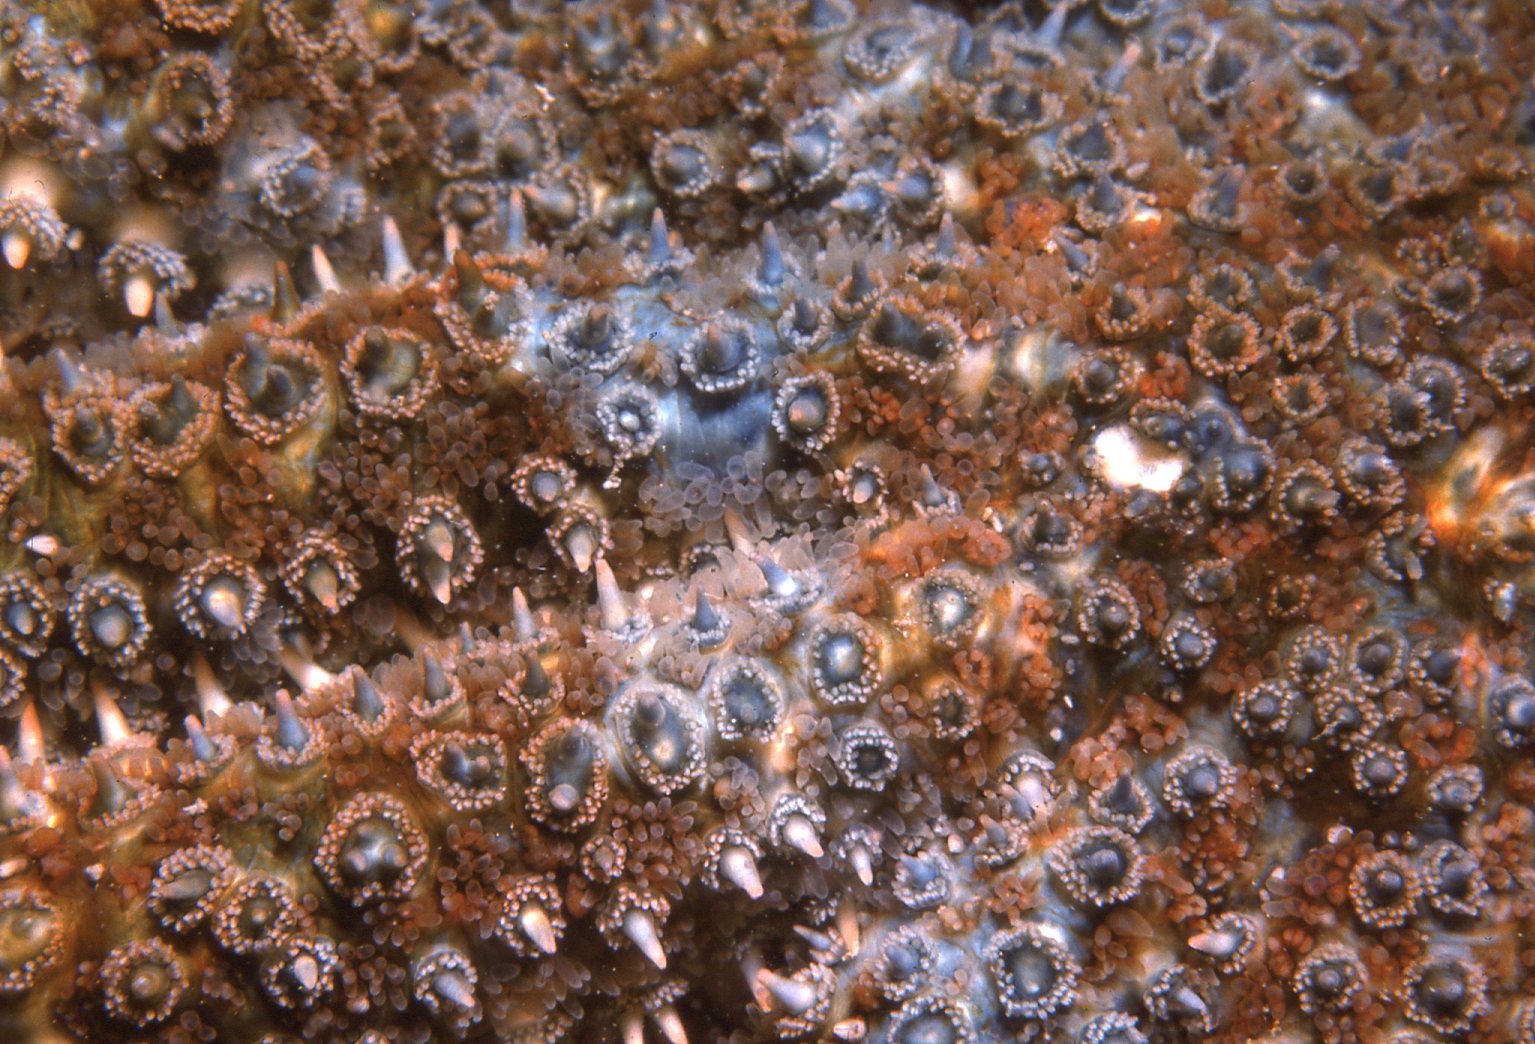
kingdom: Animalia
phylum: Echinodermata
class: Asteroidea
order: Forcipulatida
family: Asteriidae
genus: Coscinasterias
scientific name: Coscinasterias muricata
